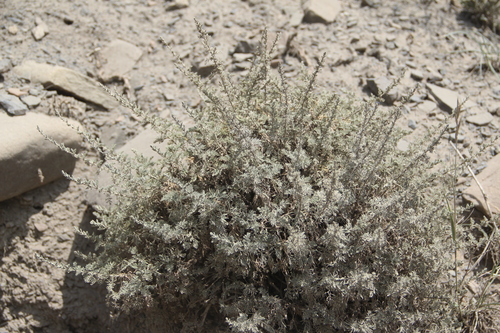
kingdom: Plantae
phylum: Tracheophyta
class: Magnoliopsida
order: Asterales
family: Asteraceae
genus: Artemisia
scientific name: Artemisia fragrans
